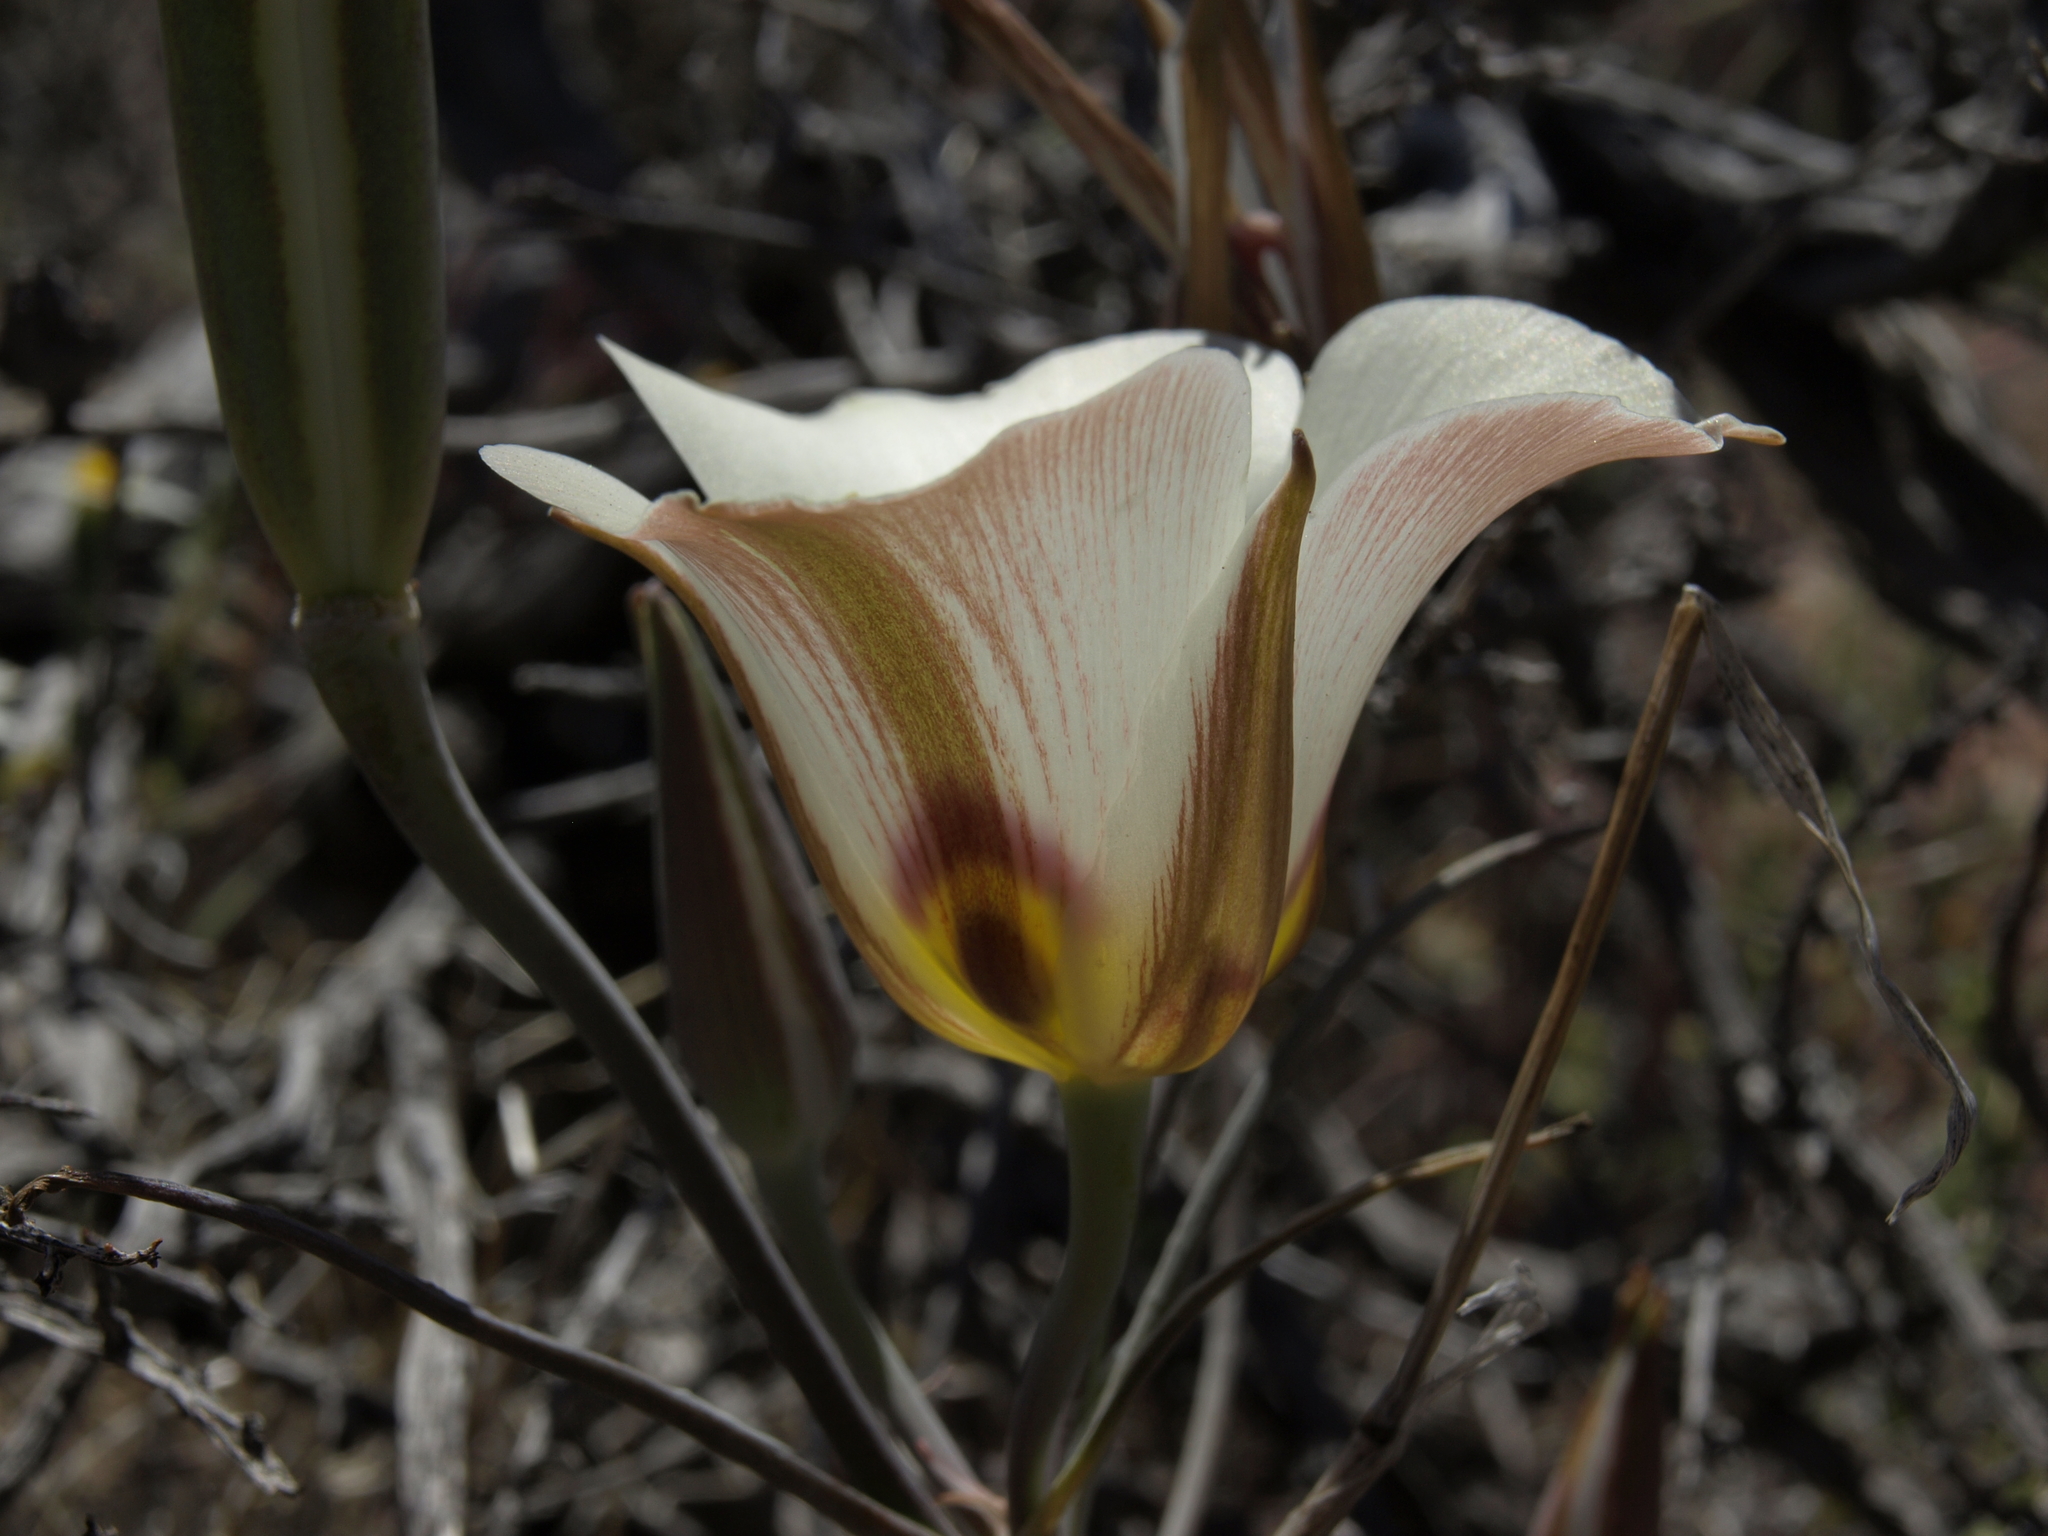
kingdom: Plantae
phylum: Tracheophyta
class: Liliopsida
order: Liliales
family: Liliaceae
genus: Calochortus
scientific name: Calochortus bruneaunis
